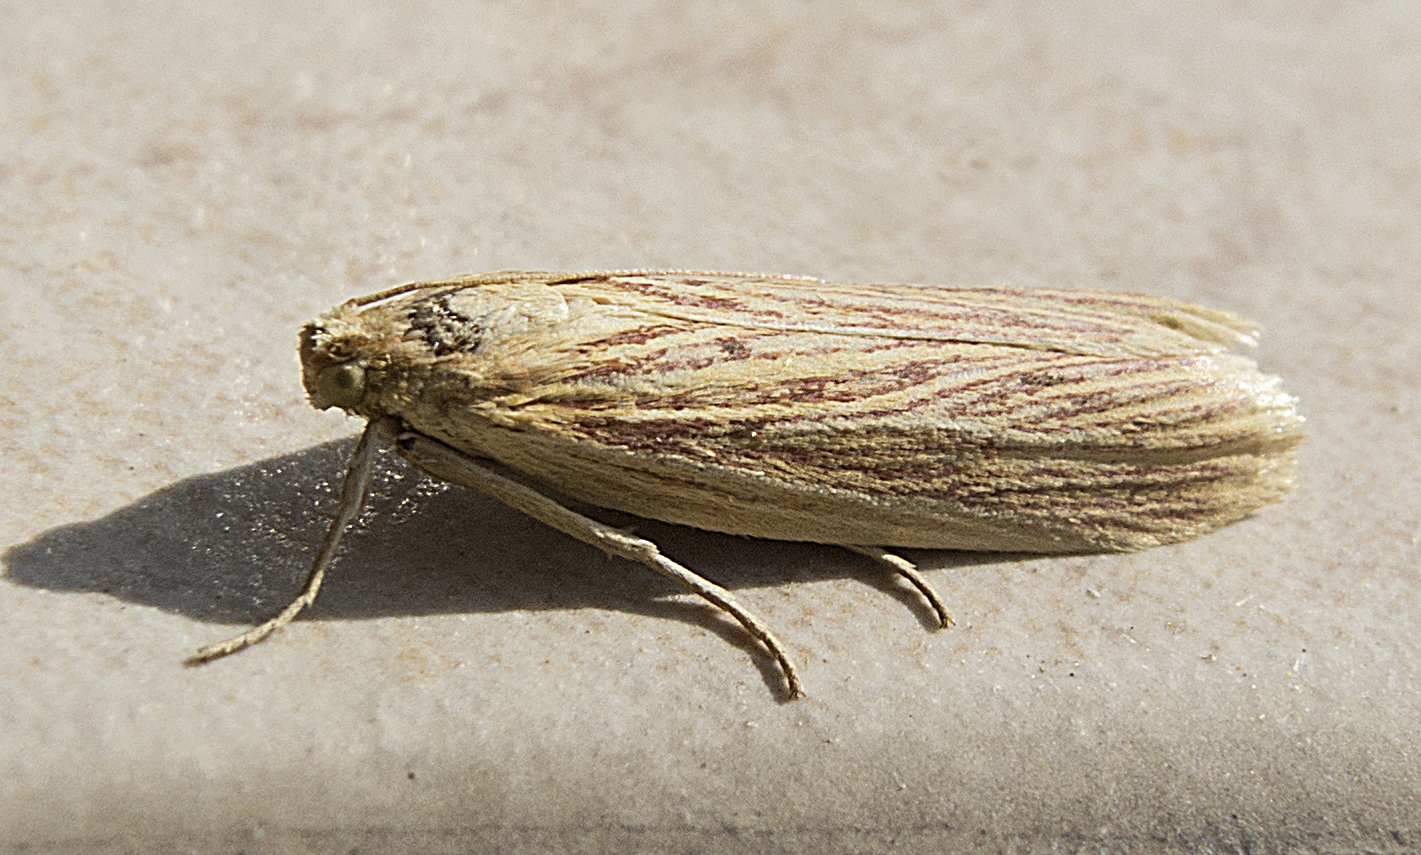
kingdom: Animalia
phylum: Arthropoda
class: Insecta
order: Lepidoptera
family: Pyralidae
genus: Ematheudes
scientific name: Ematheudes punctellus
